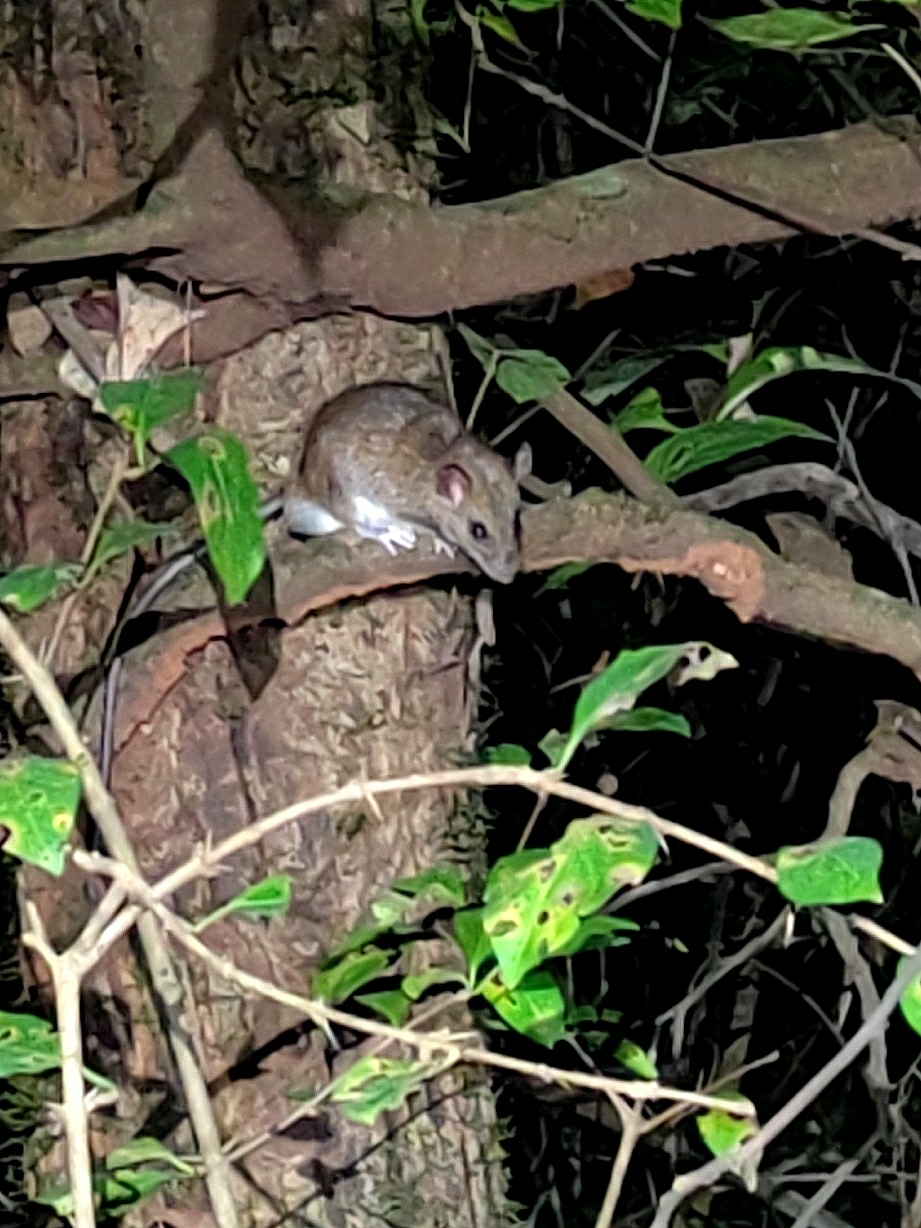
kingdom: Animalia
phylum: Chordata
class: Mammalia
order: Rodentia
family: Muridae
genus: Madromys
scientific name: Madromys blanfordi
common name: Blanford's madromys
